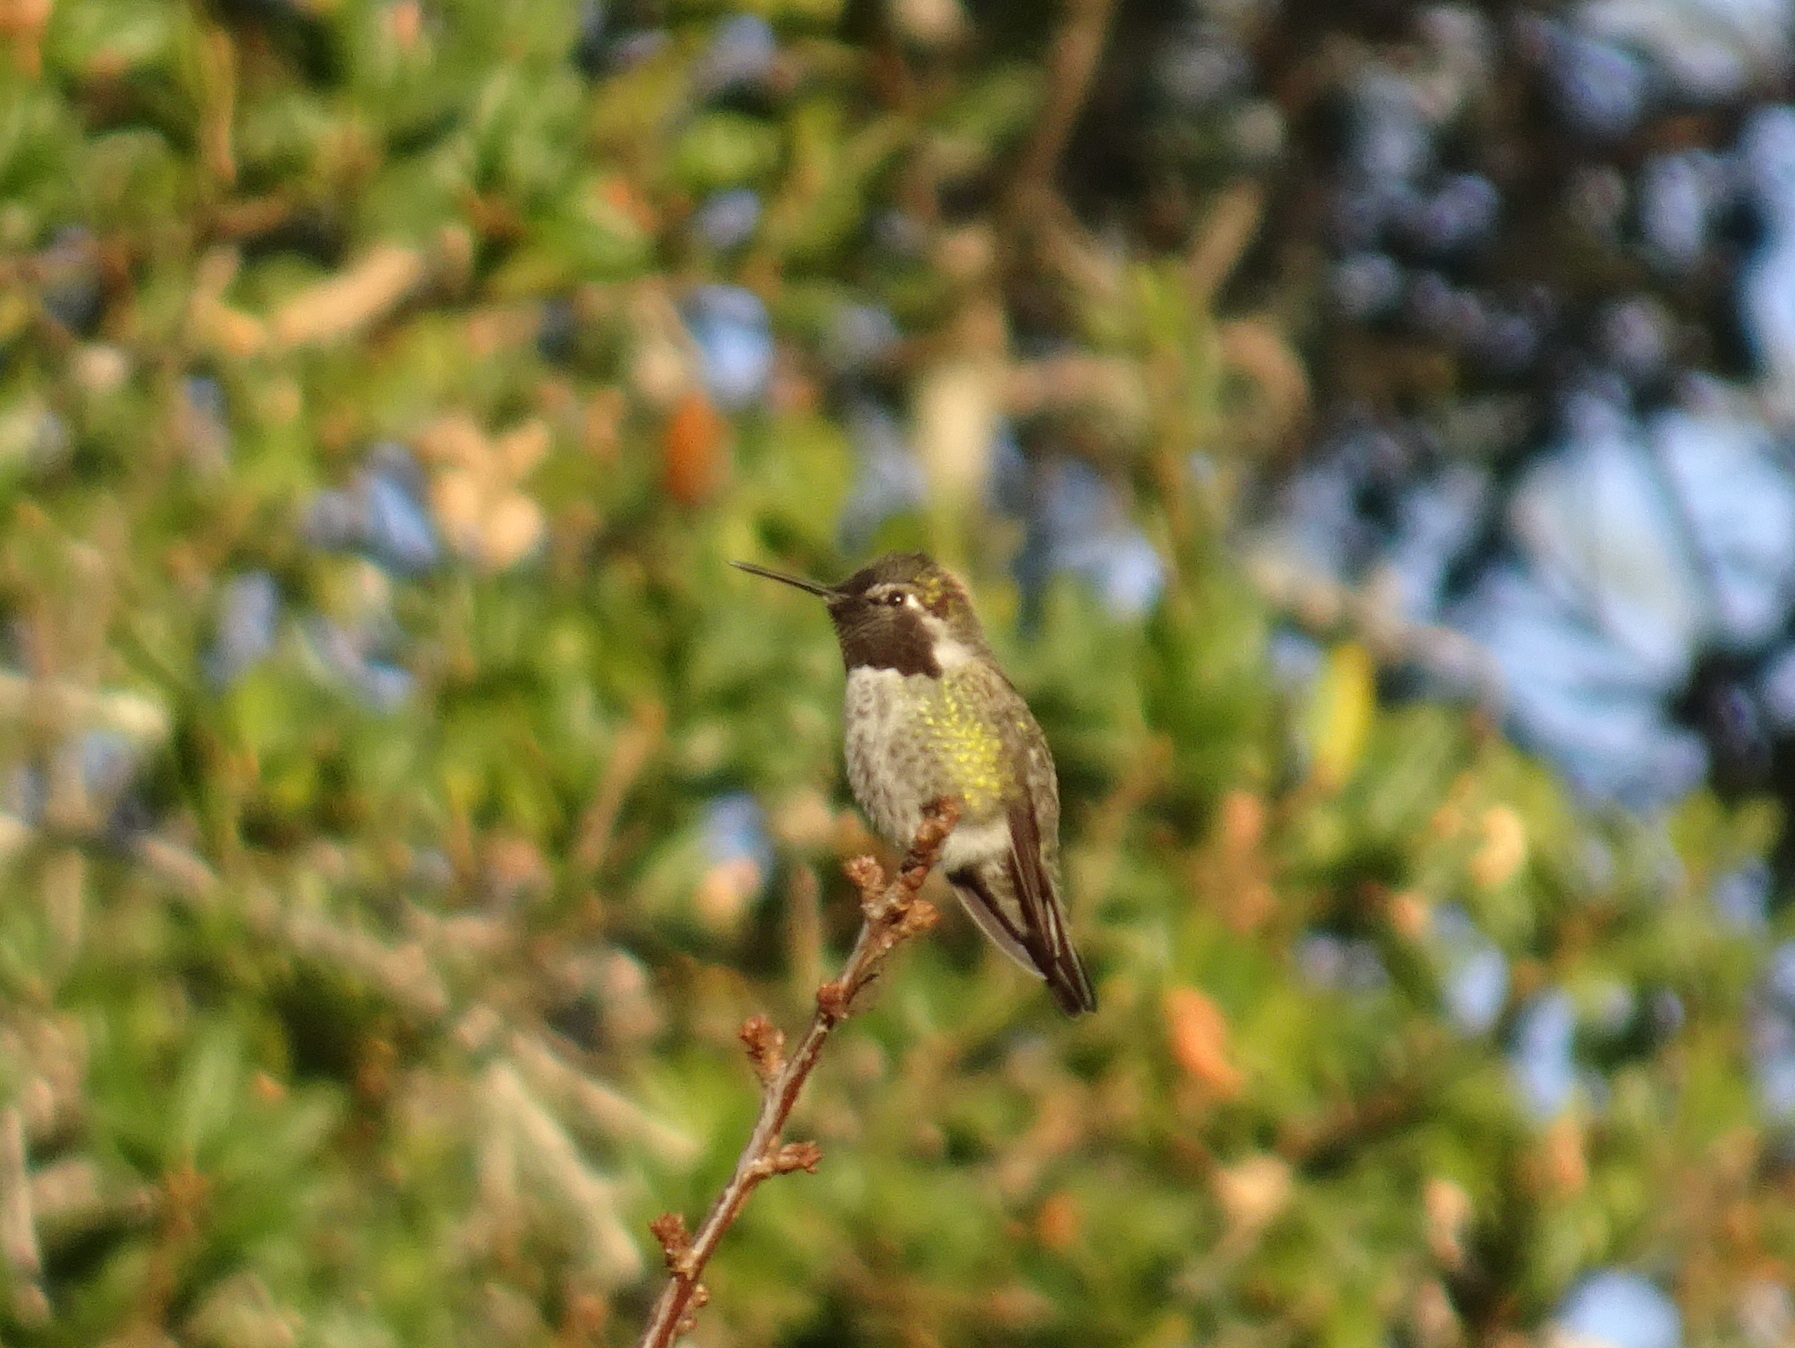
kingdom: Animalia
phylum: Chordata
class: Aves
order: Apodiformes
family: Trochilidae
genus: Calypte
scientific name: Calypte anna
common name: Anna's hummingbird
